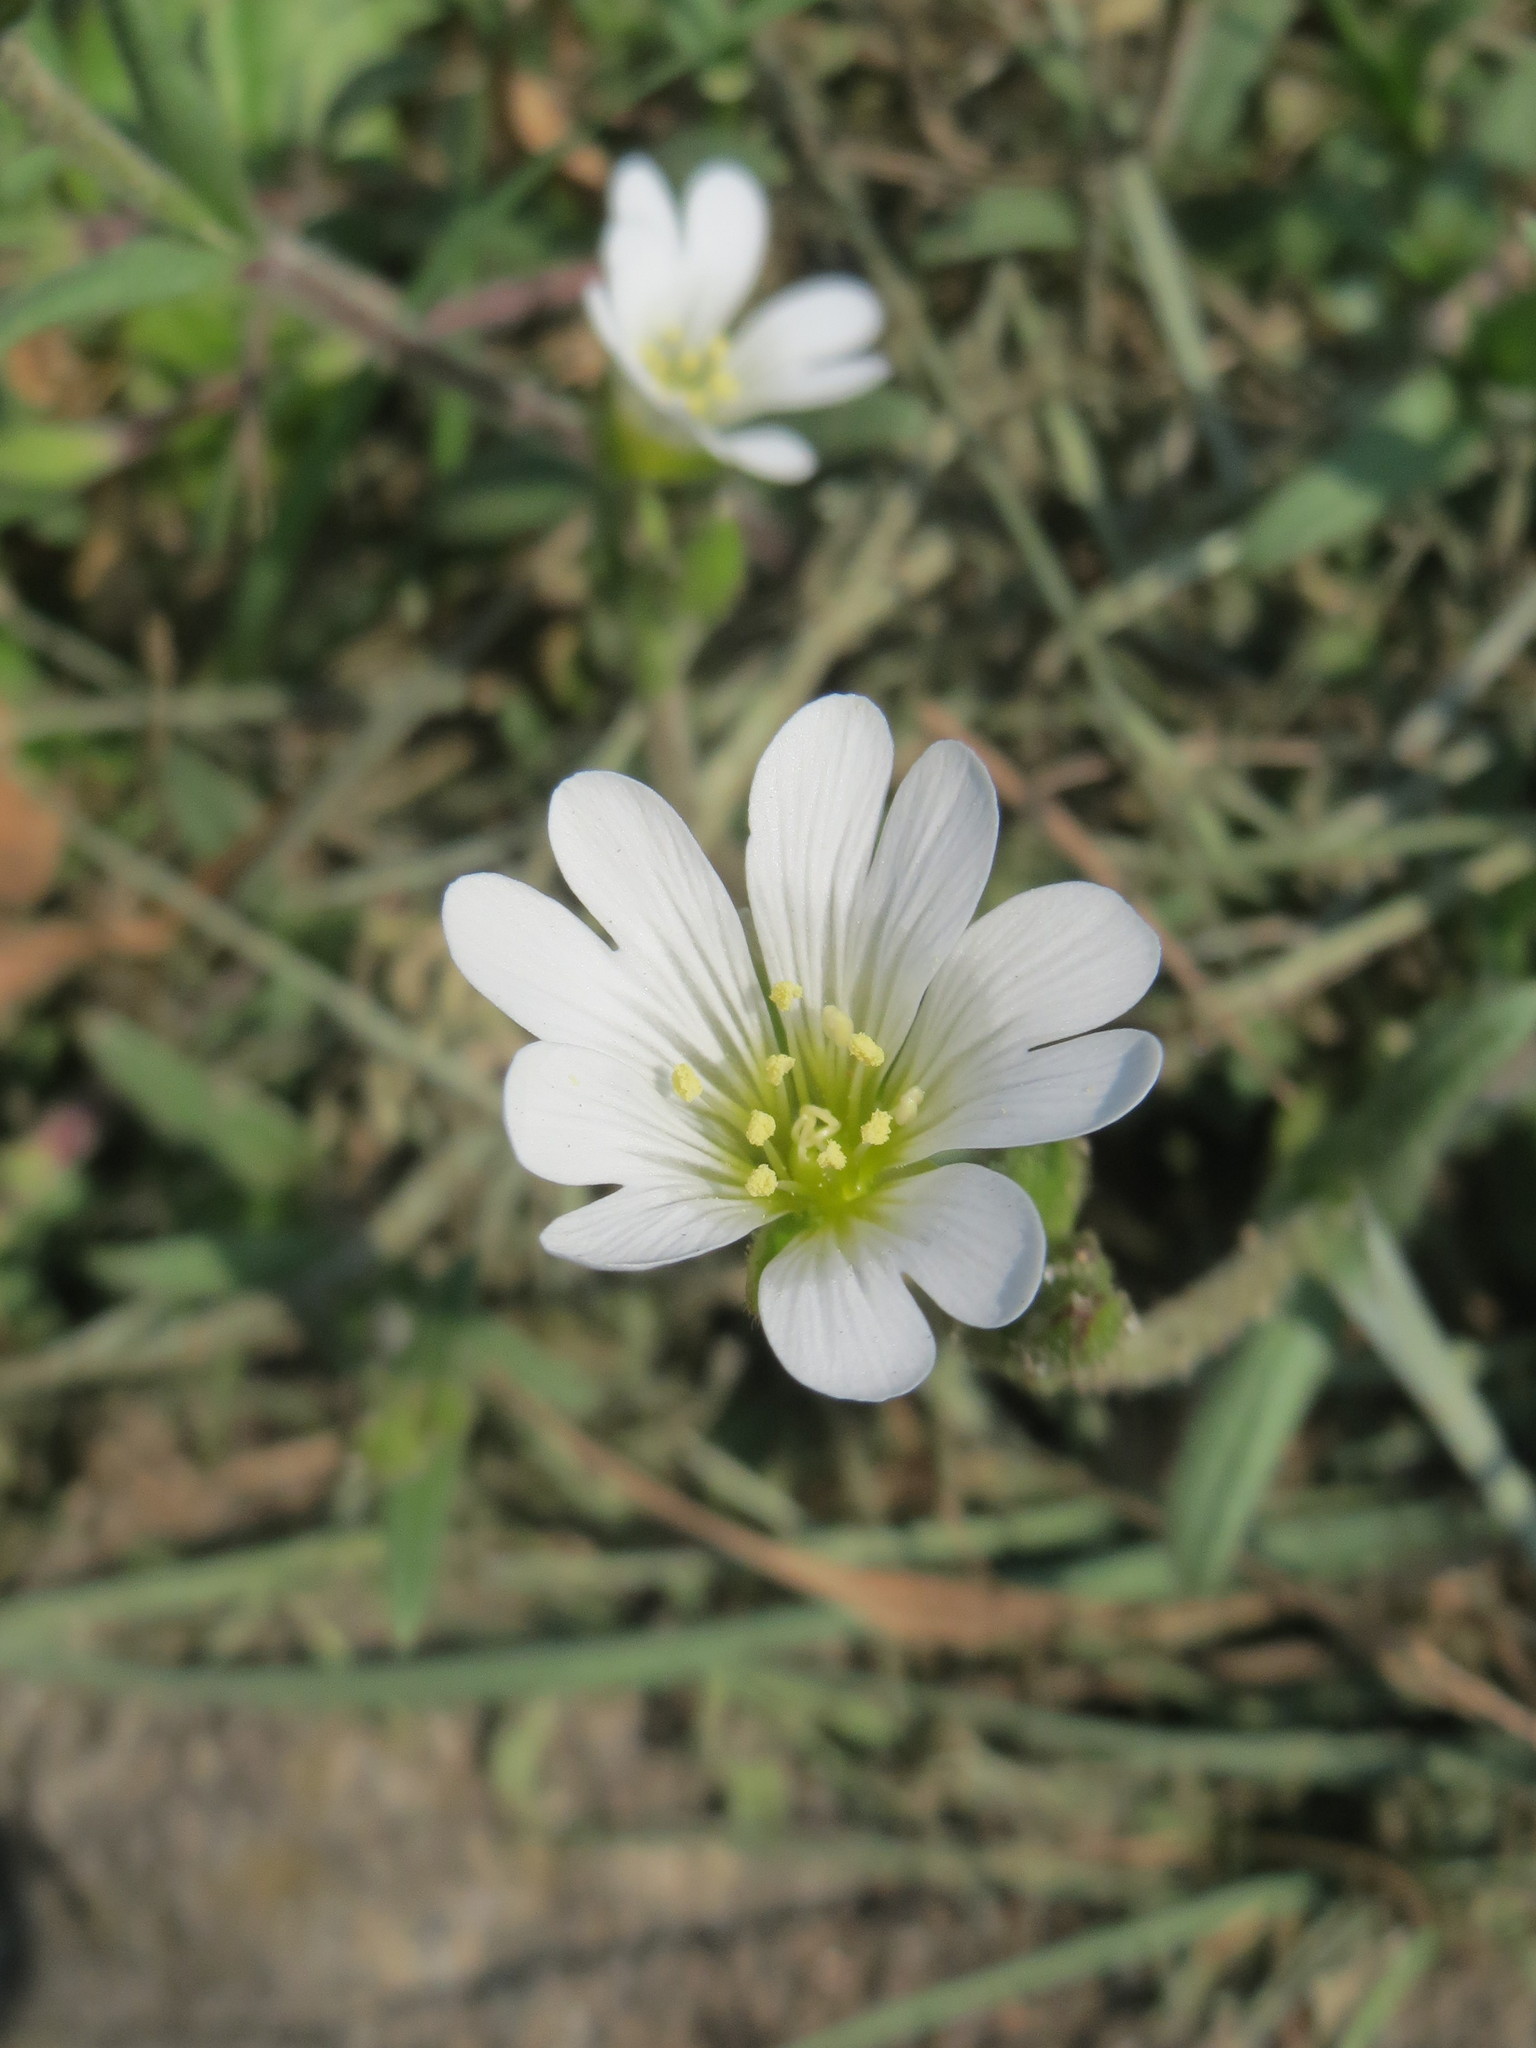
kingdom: Plantae
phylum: Tracheophyta
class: Magnoliopsida
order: Caryophyllales
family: Caryophyllaceae
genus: Cerastium
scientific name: Cerastium arvense
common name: Field mouse-ear
